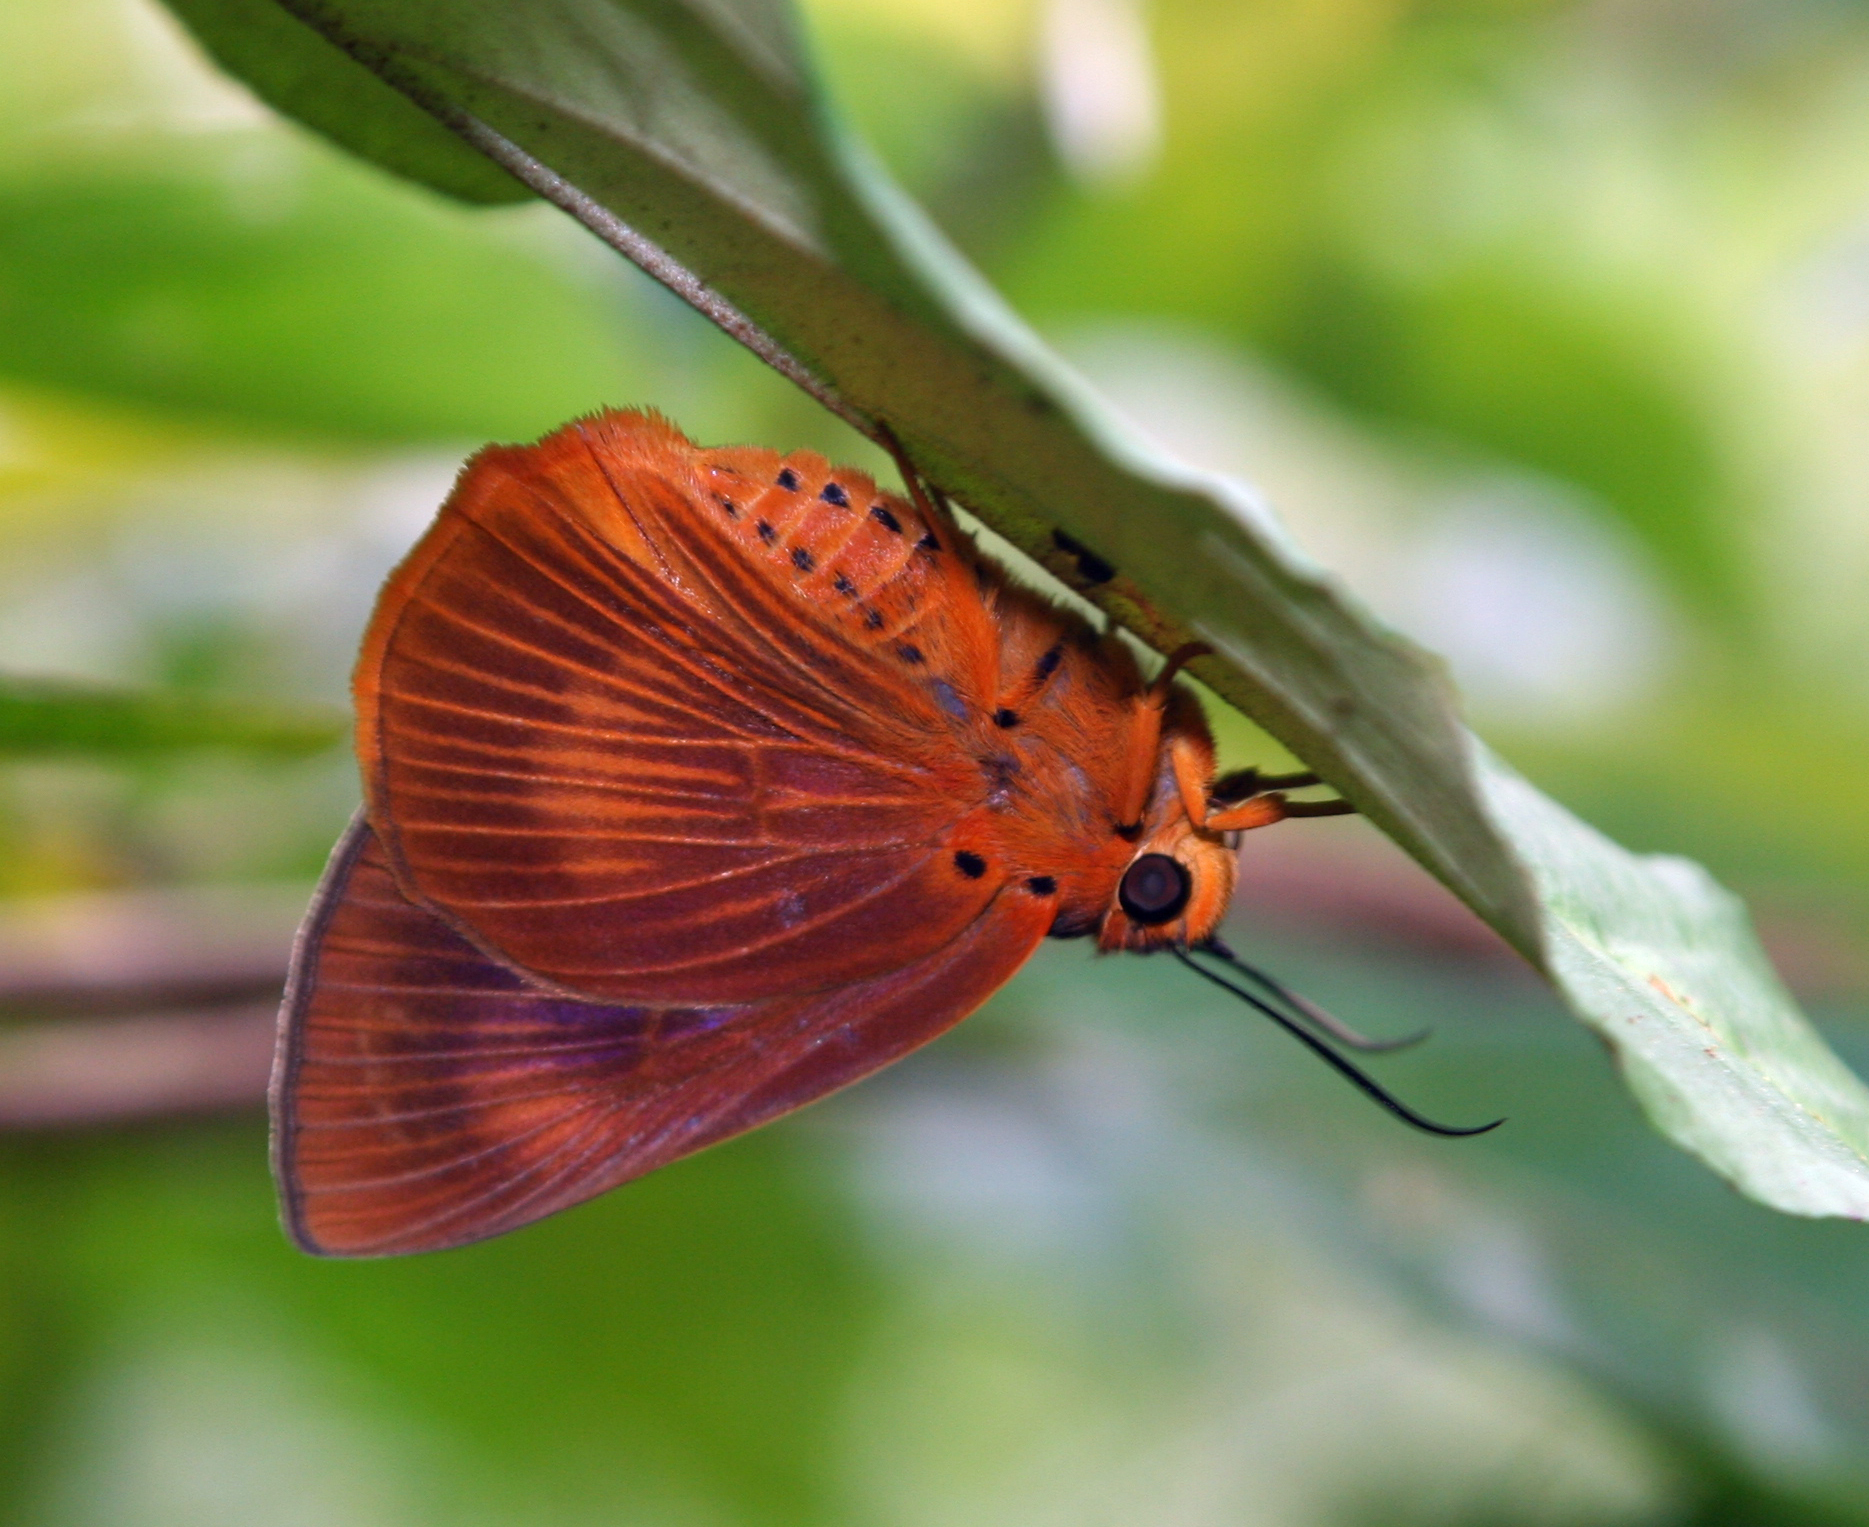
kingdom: Animalia
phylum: Arthropoda
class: Insecta
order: Lepidoptera
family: Hesperiidae
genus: Bibasis
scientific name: Bibasis harisa
